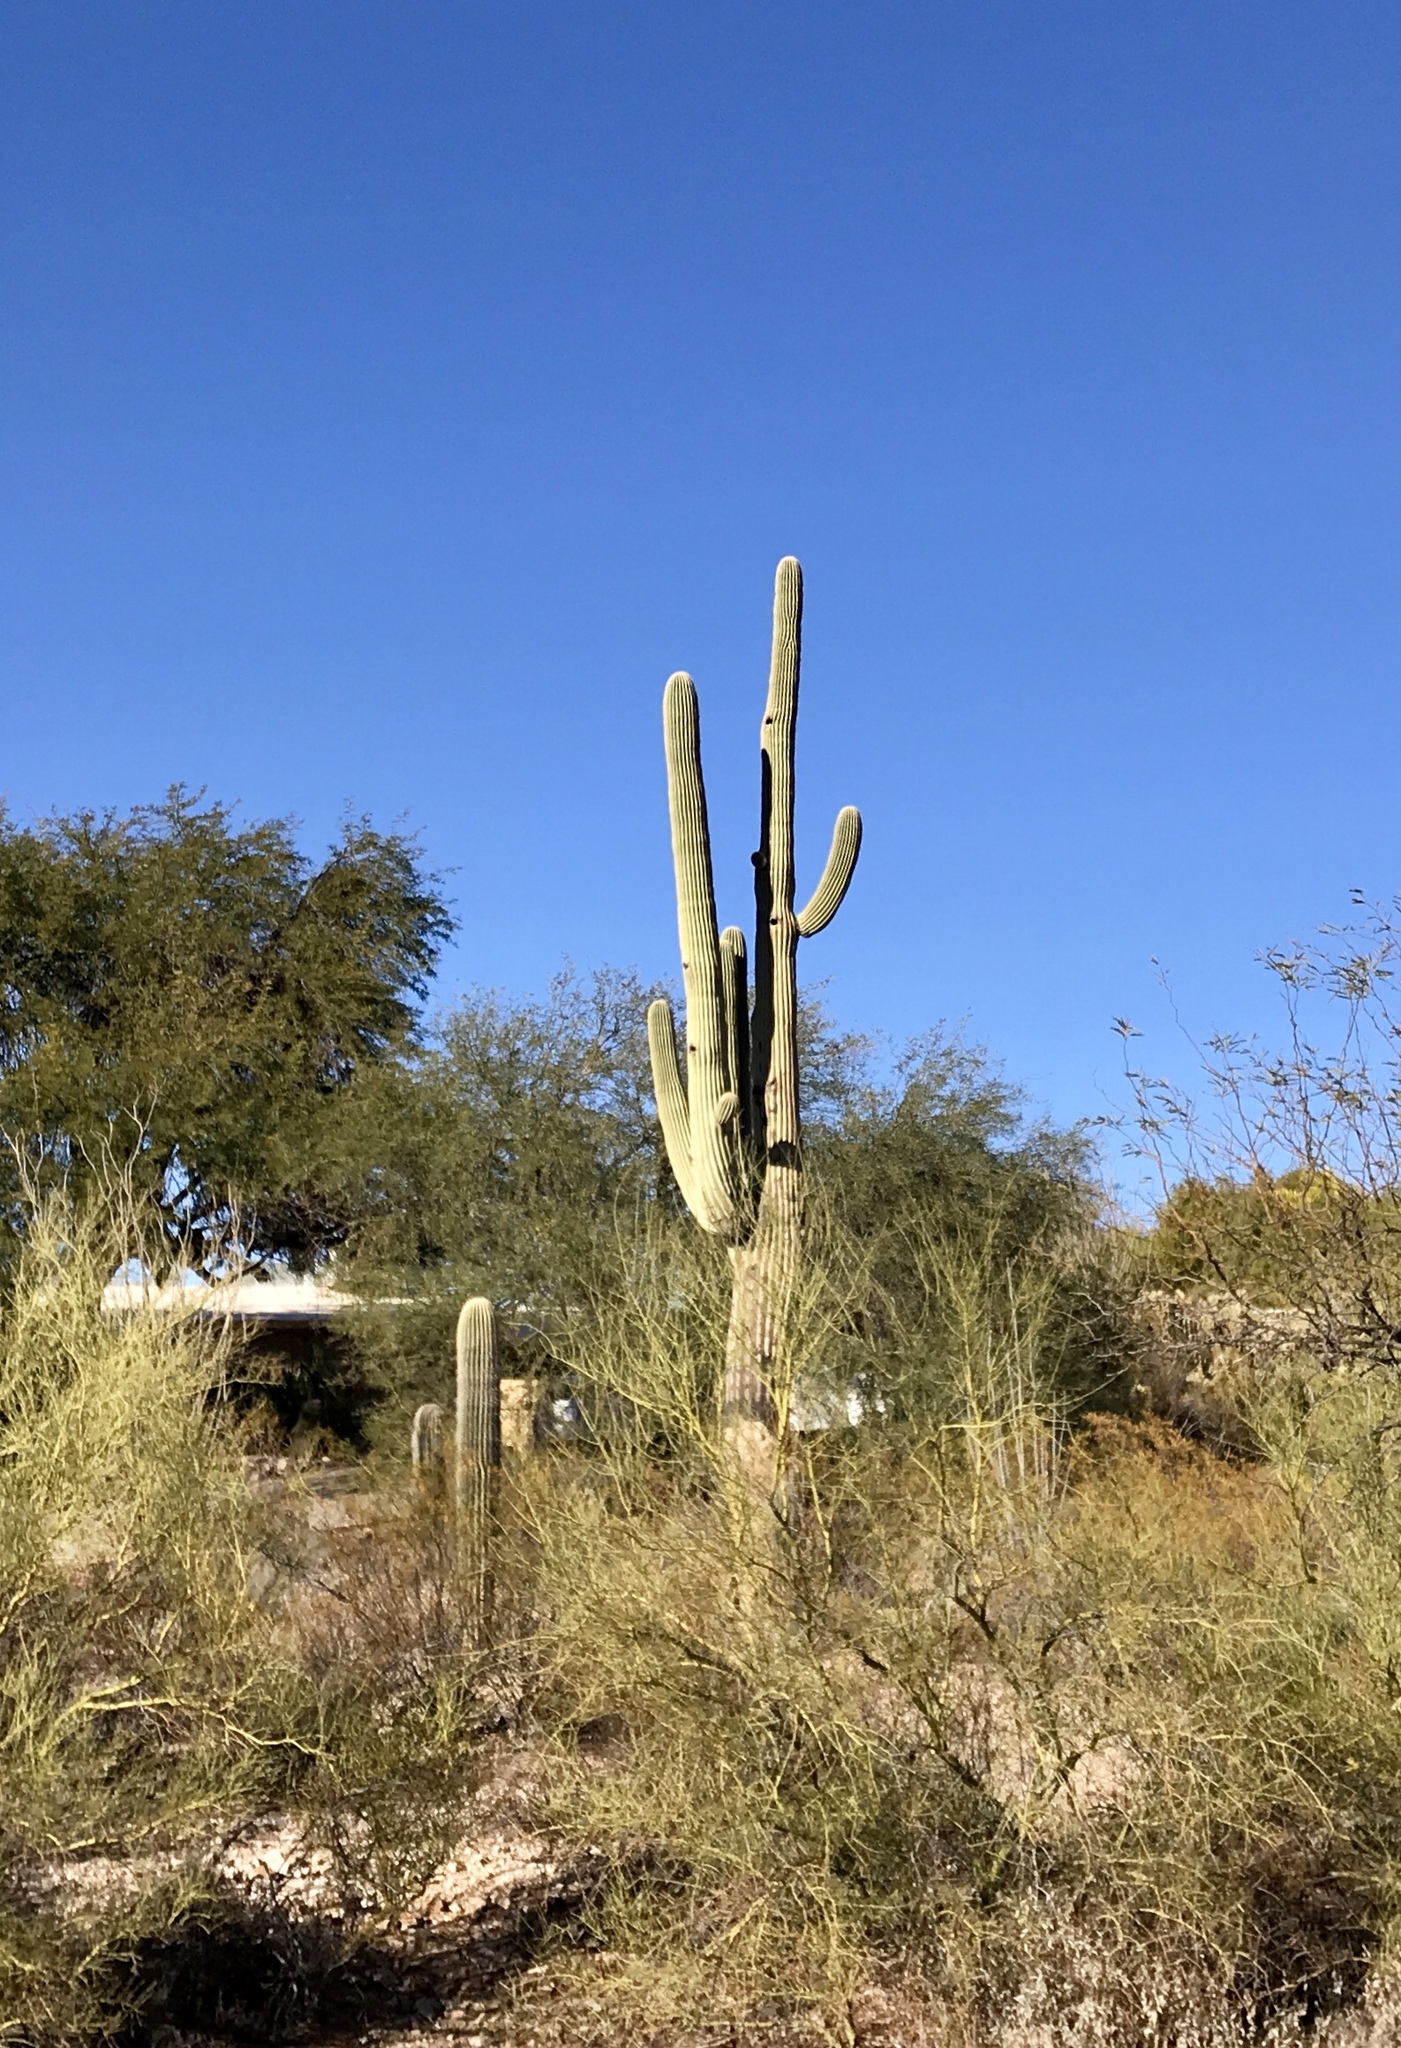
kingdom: Plantae
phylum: Tracheophyta
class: Magnoliopsida
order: Caryophyllales
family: Cactaceae
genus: Carnegiea
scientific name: Carnegiea gigantea
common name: Saguaro
